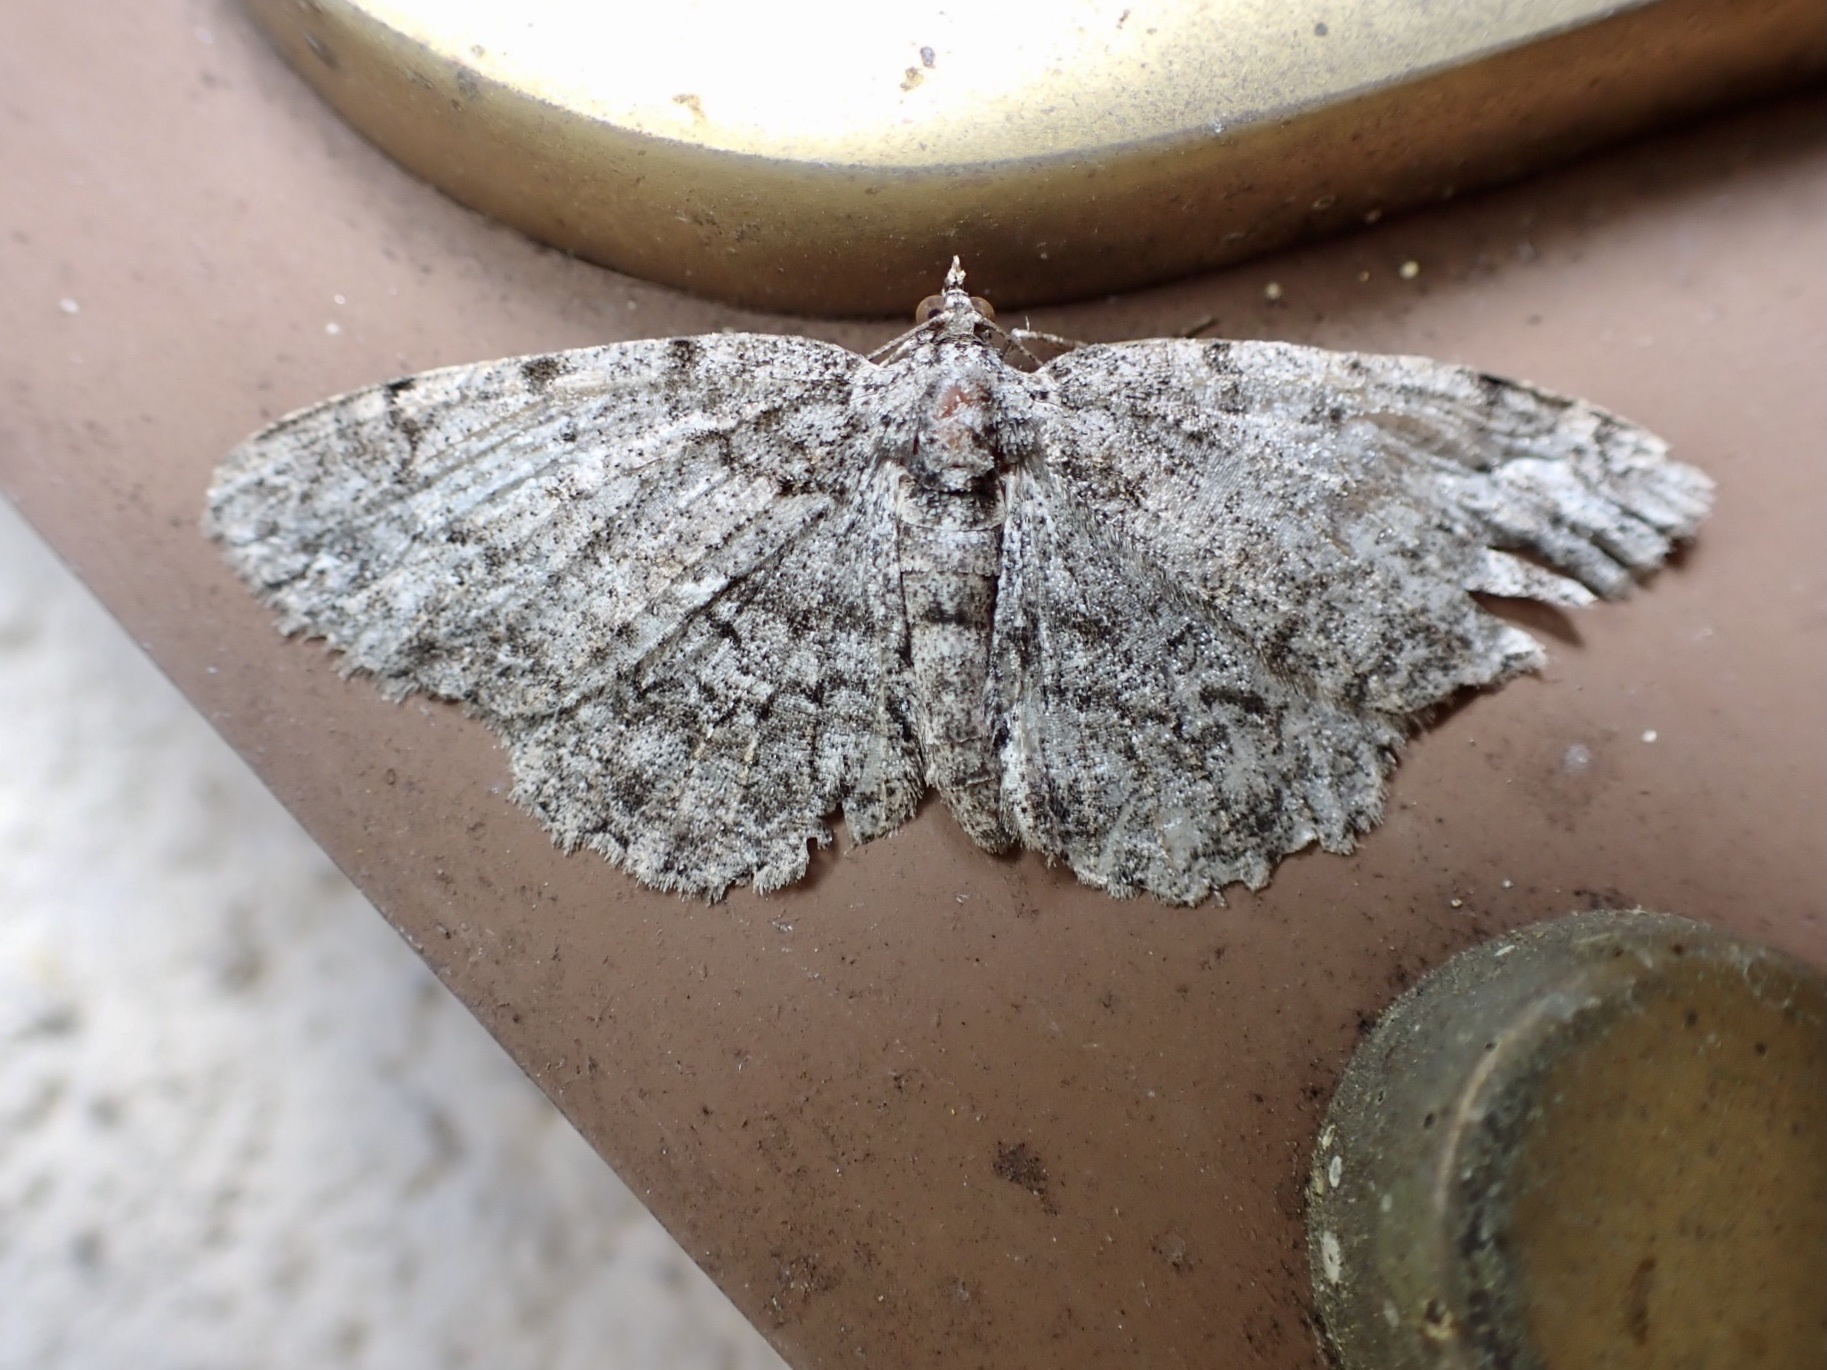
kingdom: Animalia
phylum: Arthropoda
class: Insecta
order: Lepidoptera
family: Geometridae
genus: Protoboarmia
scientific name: Protoboarmia porcelaria
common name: Porcelain gray
